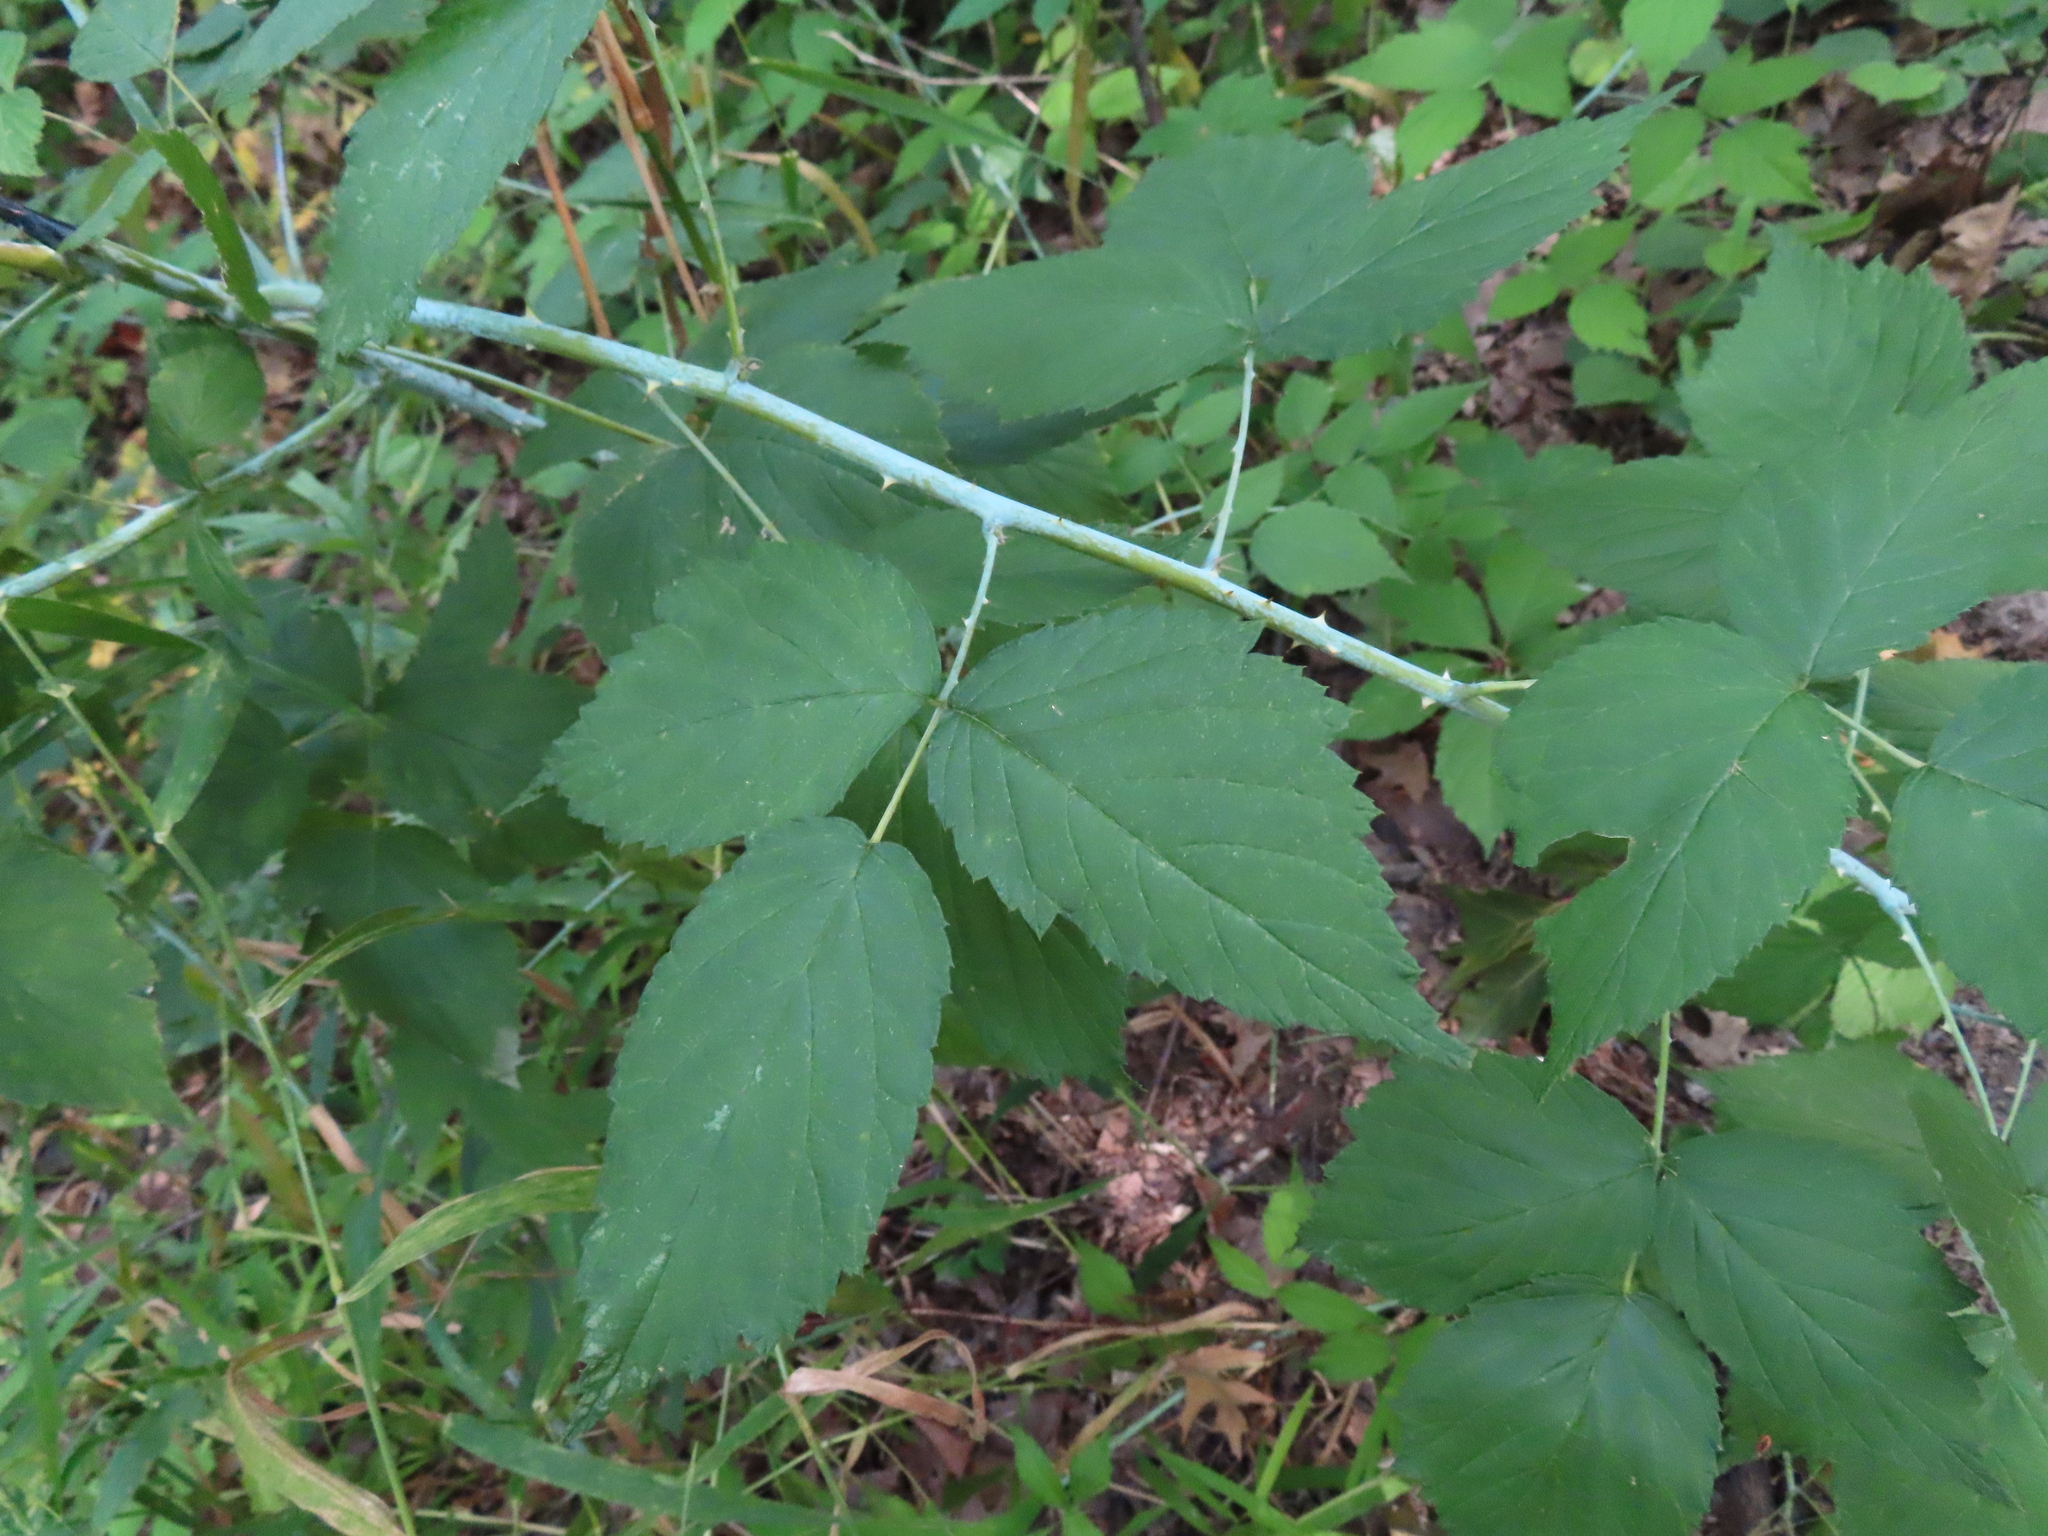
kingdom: Plantae
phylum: Tracheophyta
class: Magnoliopsida
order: Rosales
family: Rosaceae
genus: Rubus
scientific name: Rubus occidentalis
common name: Black raspberry
